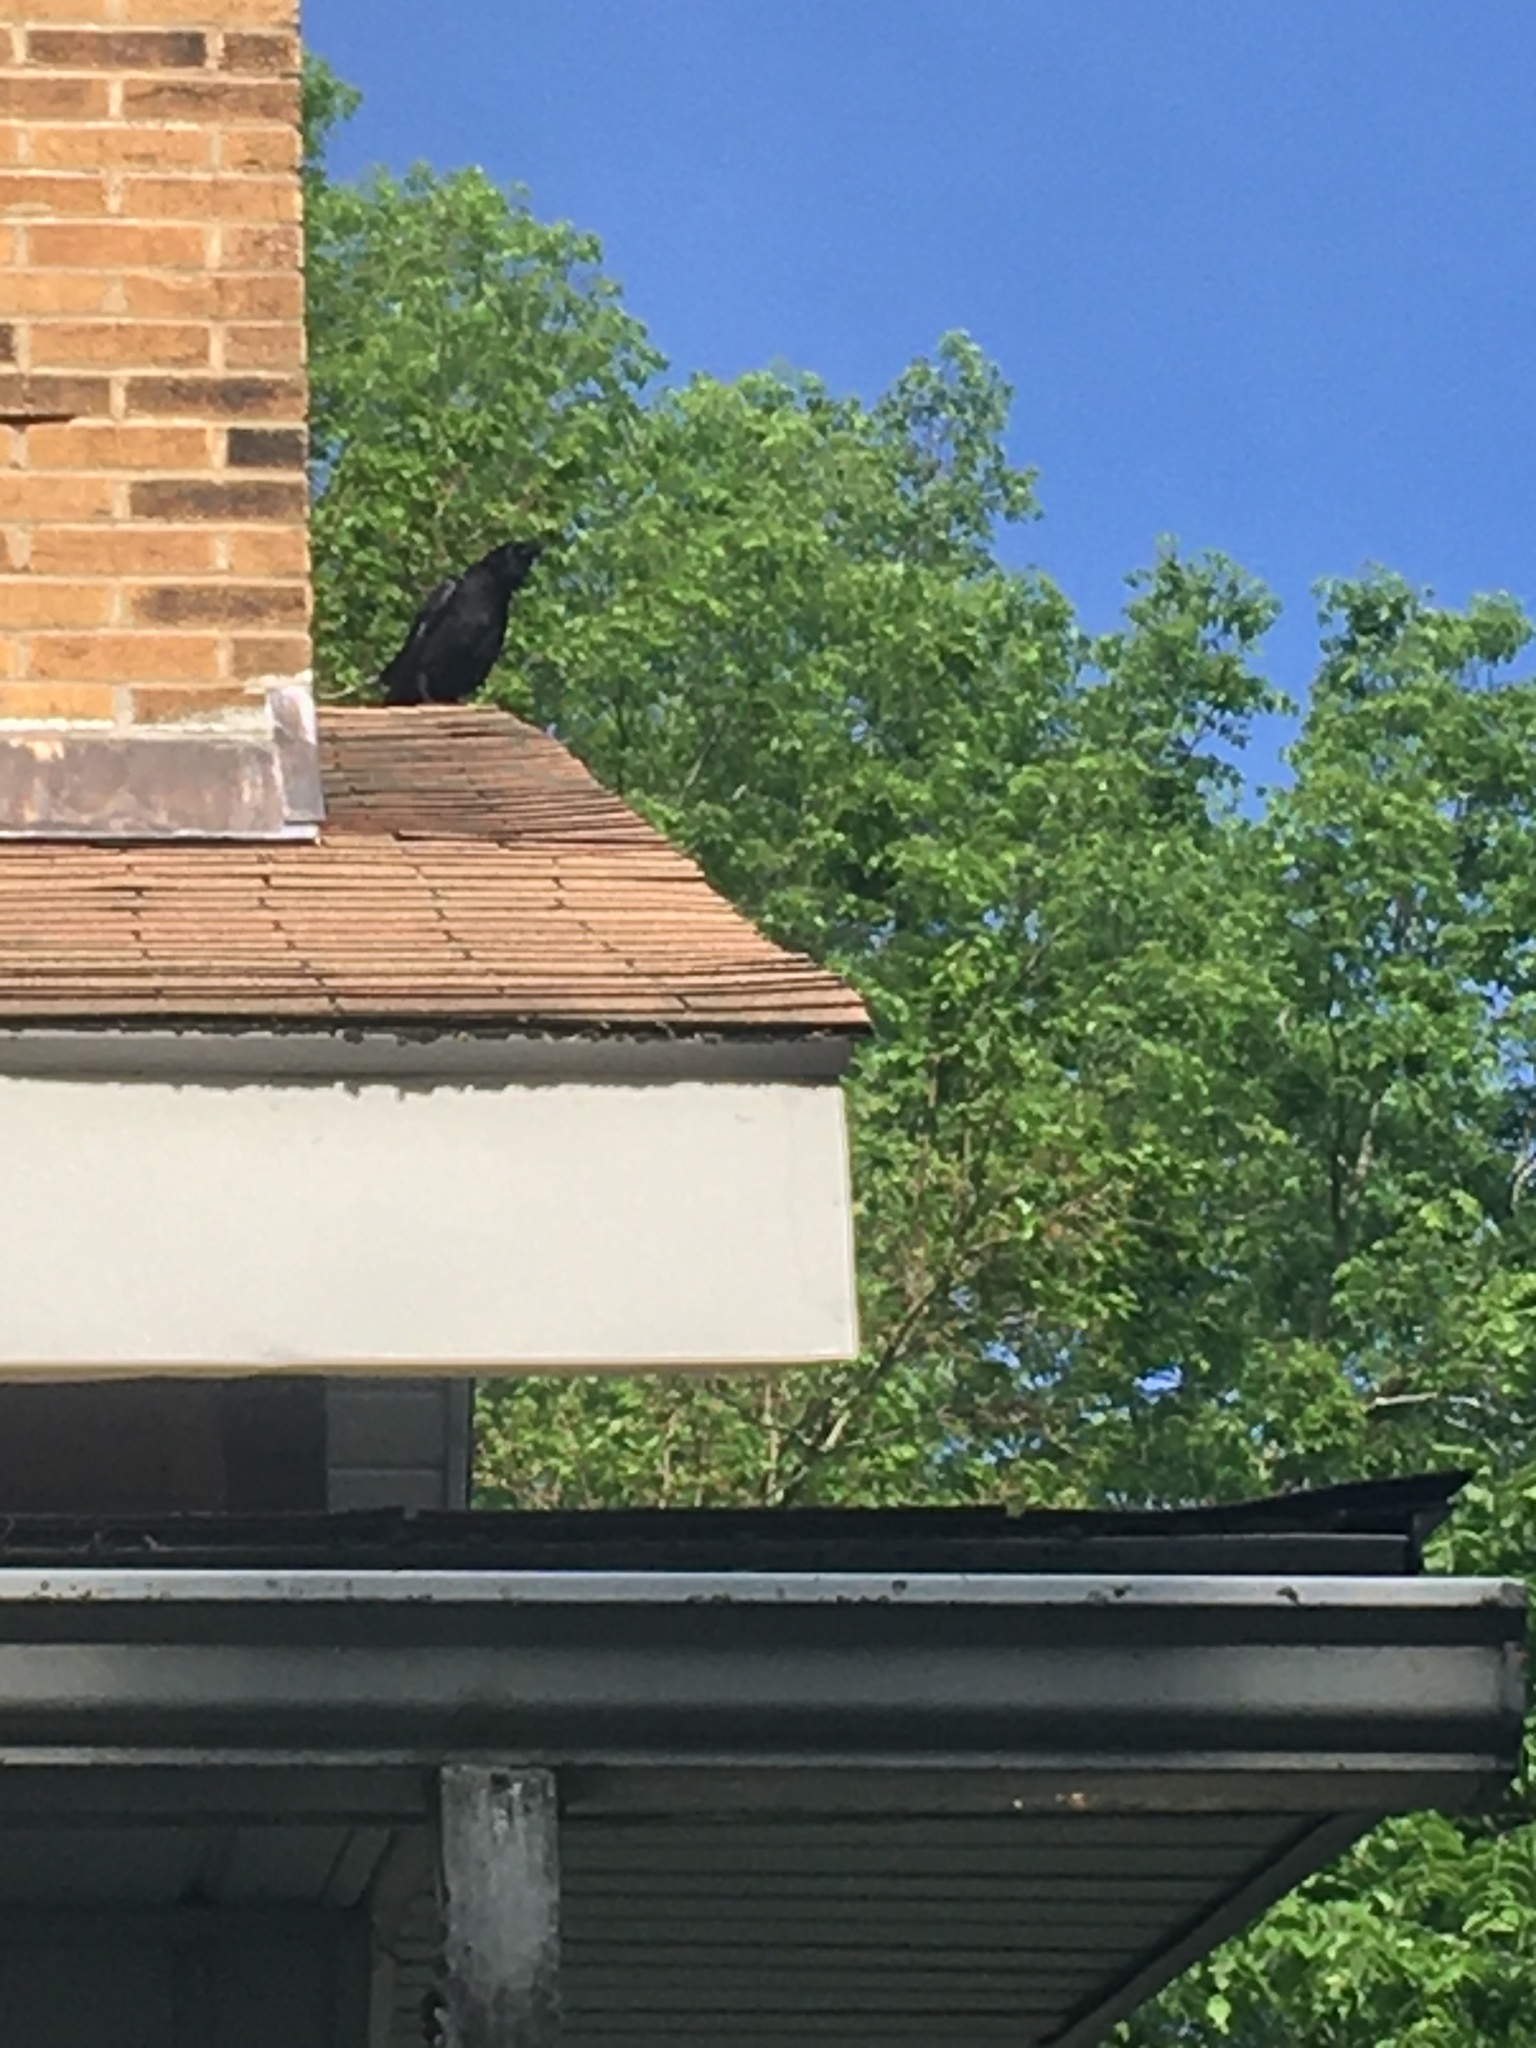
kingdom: Animalia
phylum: Chordata
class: Aves
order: Passeriformes
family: Corvidae
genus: Corvus
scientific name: Corvus brachyrhynchos
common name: American crow
